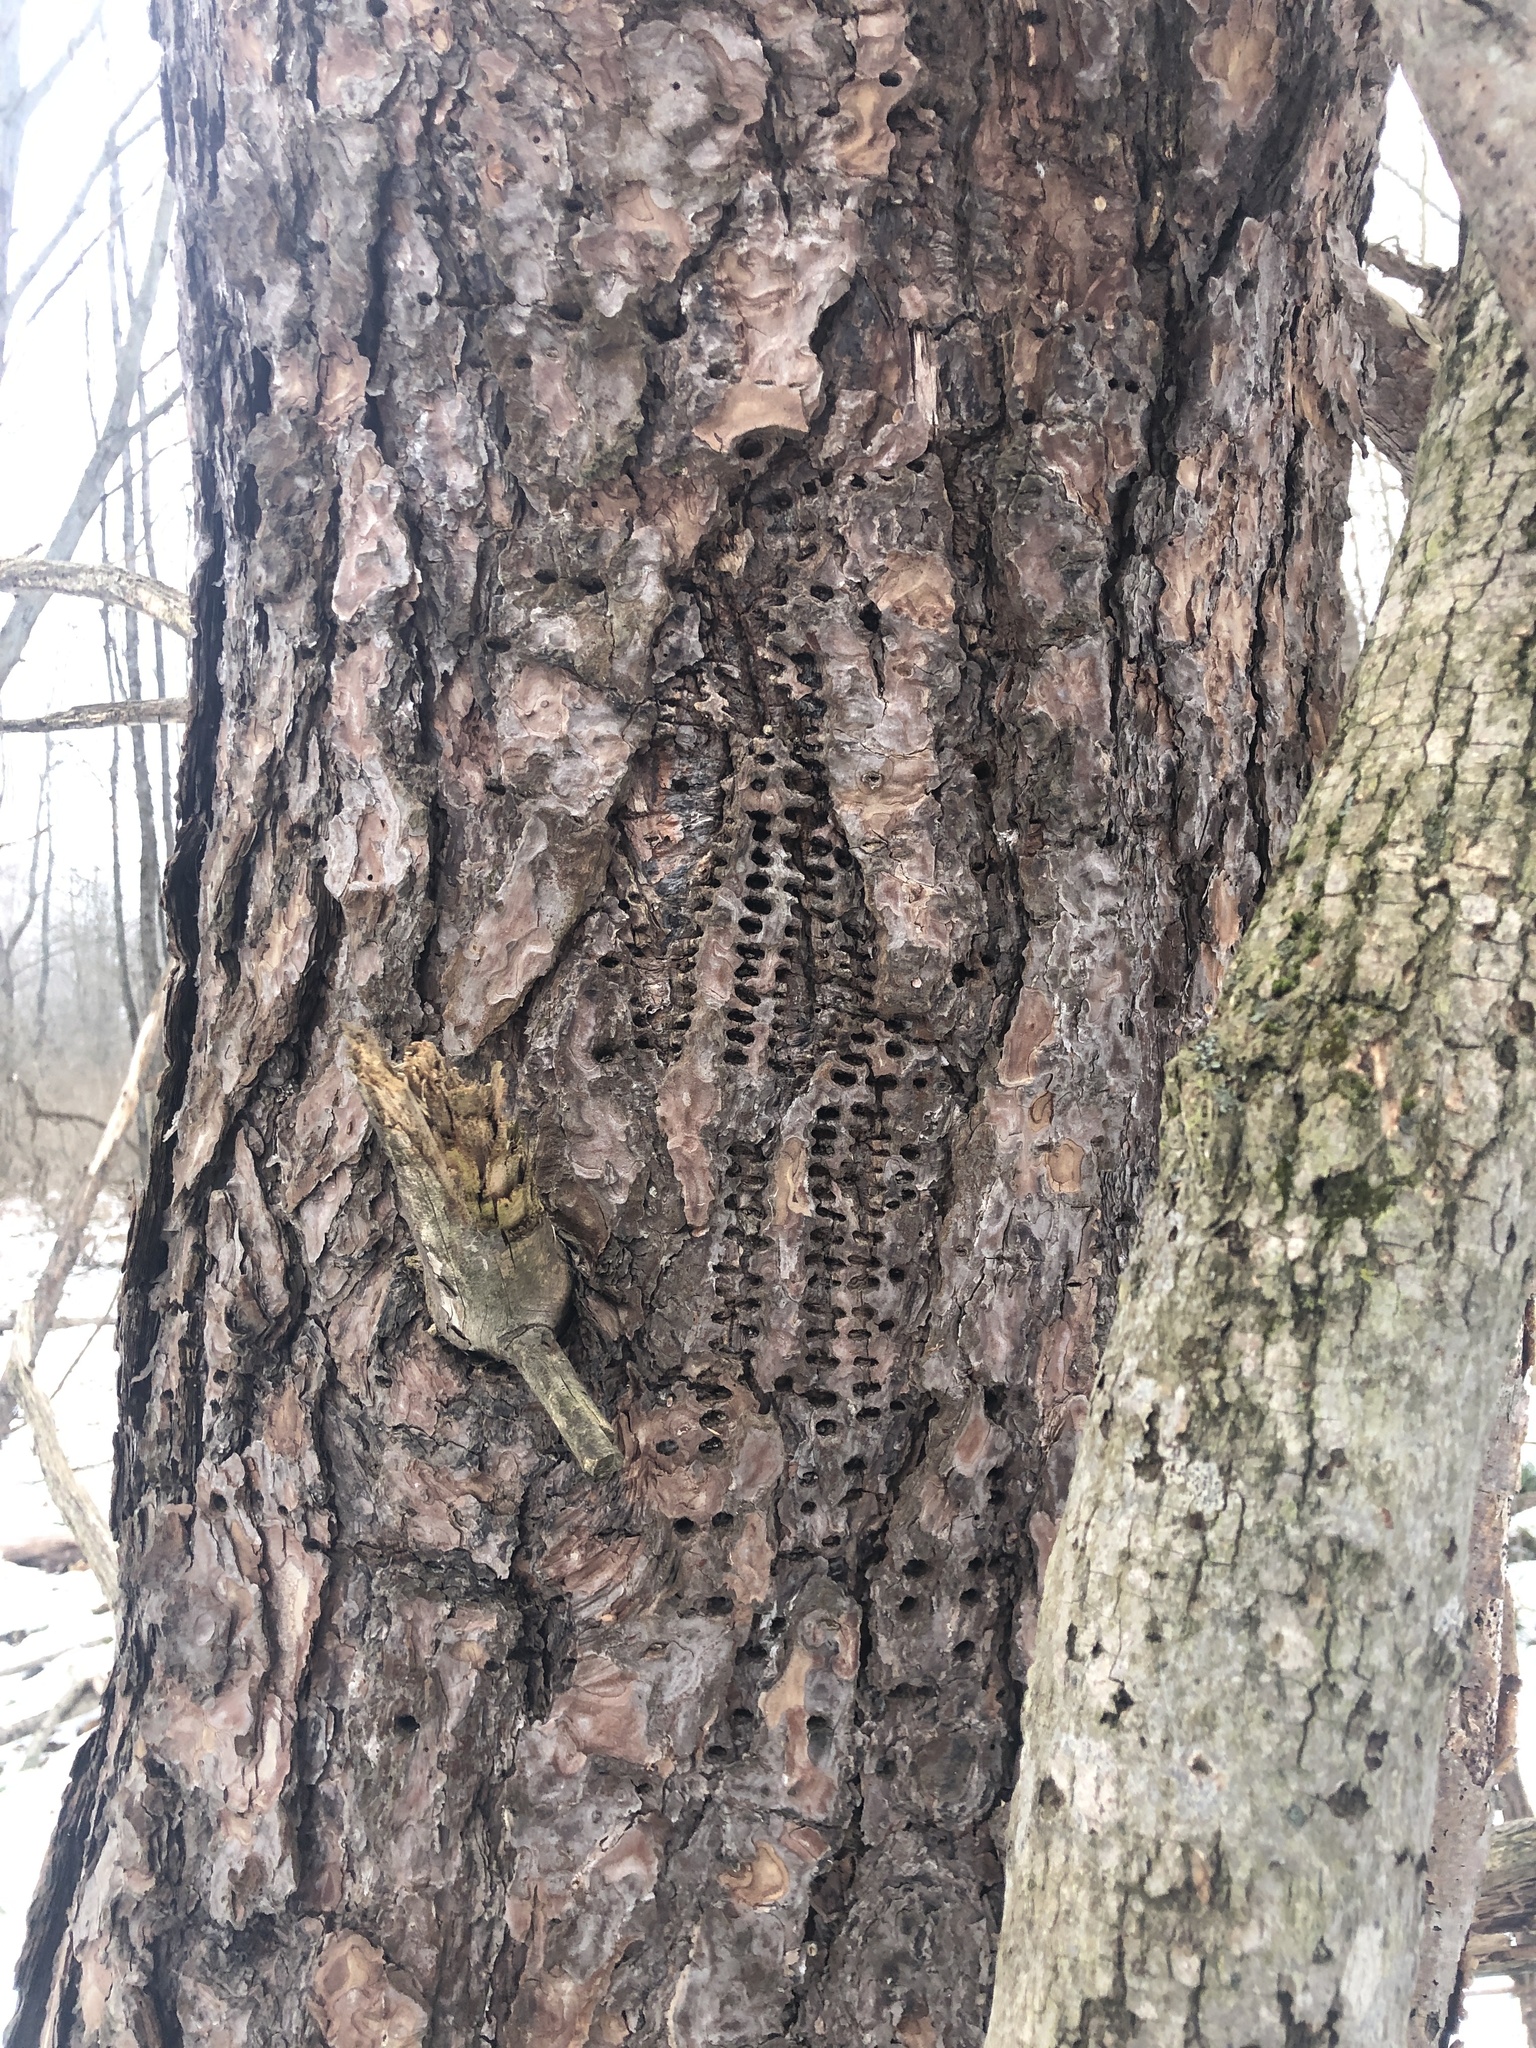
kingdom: Animalia
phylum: Chordata
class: Aves
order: Piciformes
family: Picidae
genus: Sphyrapicus
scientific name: Sphyrapicus varius
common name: Yellow-bellied sapsucker
